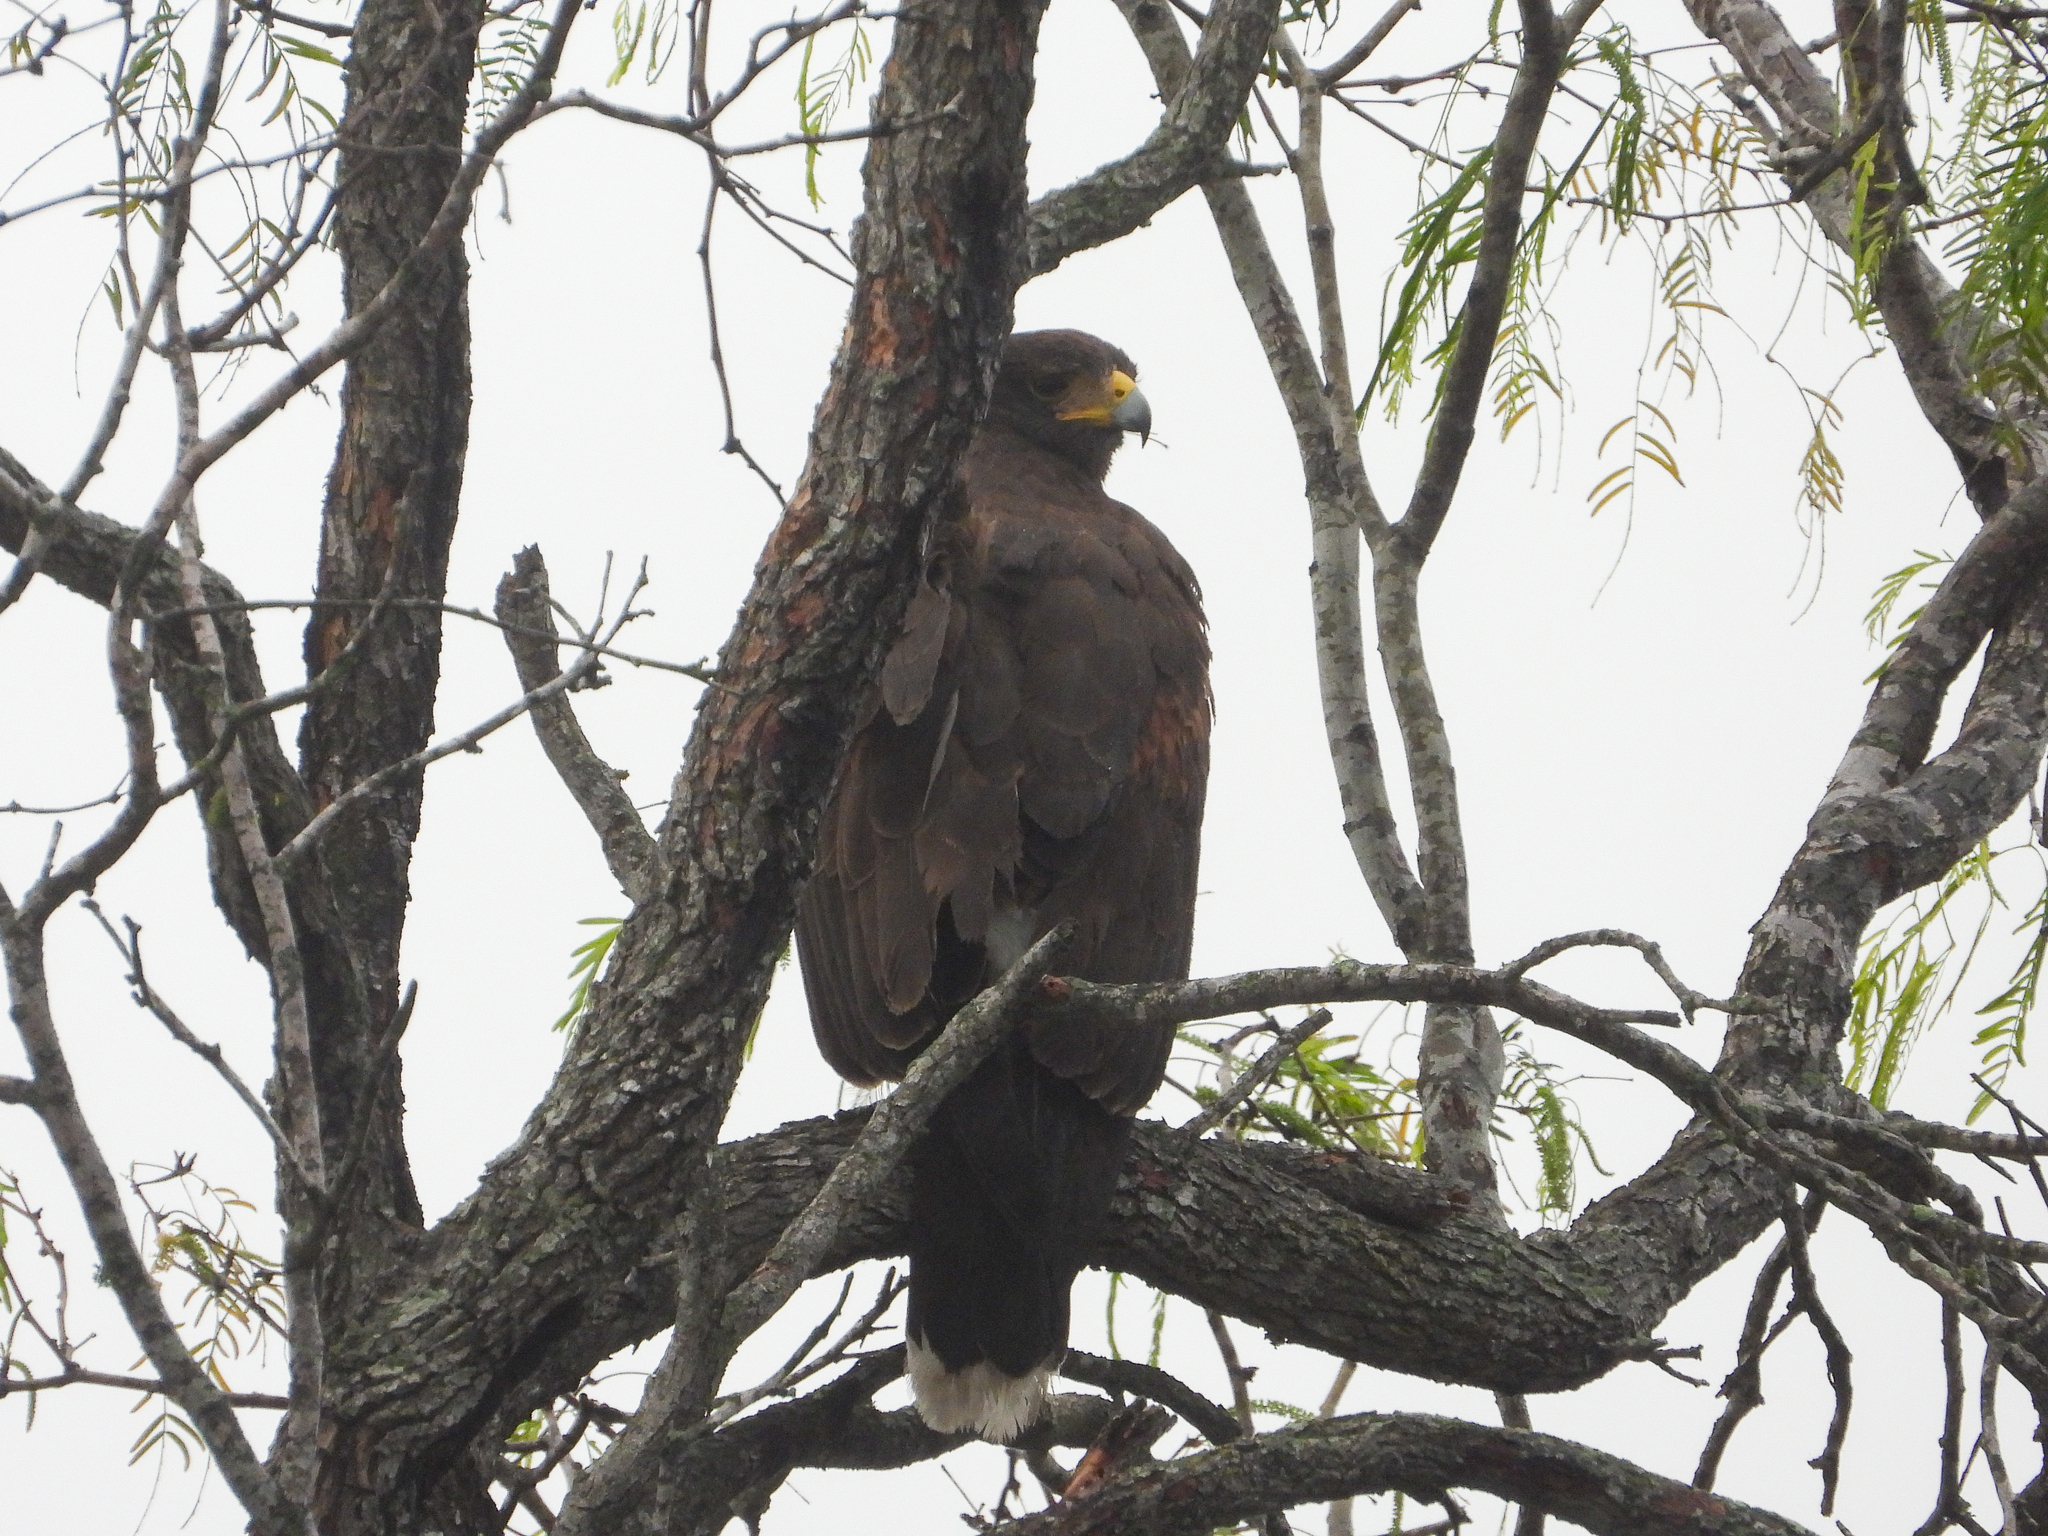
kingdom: Animalia
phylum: Chordata
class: Aves
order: Accipitriformes
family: Accipitridae
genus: Parabuteo
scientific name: Parabuteo unicinctus
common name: Harris's hawk
